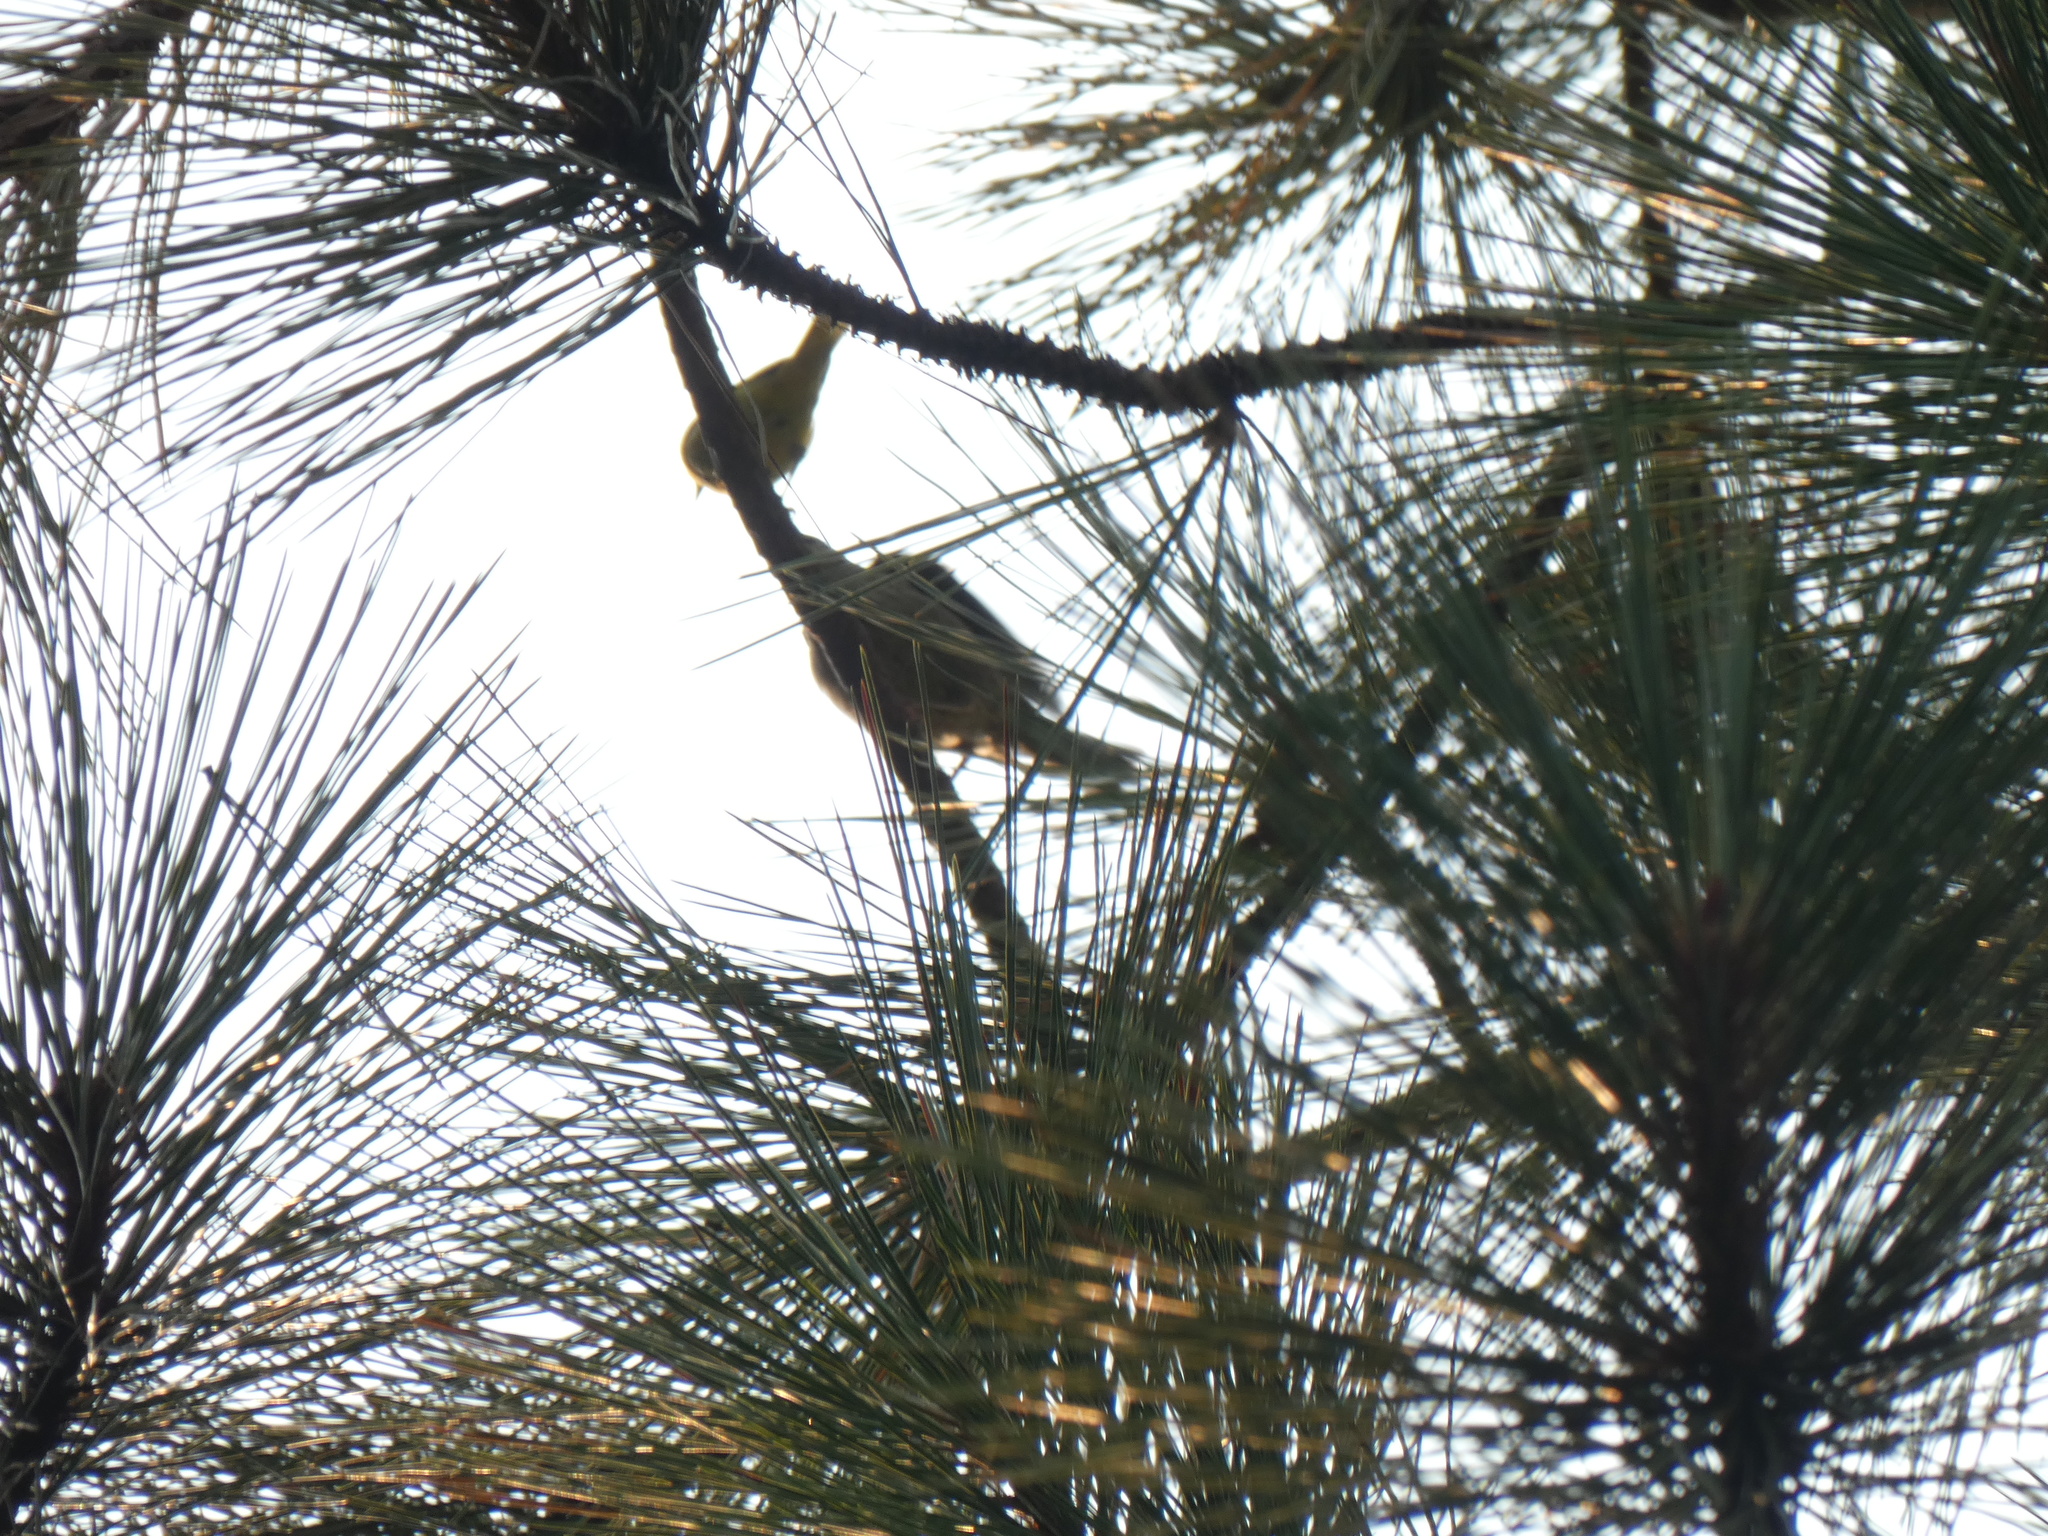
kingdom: Animalia
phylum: Chordata
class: Aves
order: Passeriformes
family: Fringillidae
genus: Spinus
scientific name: Spinus tristis
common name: American goldfinch
